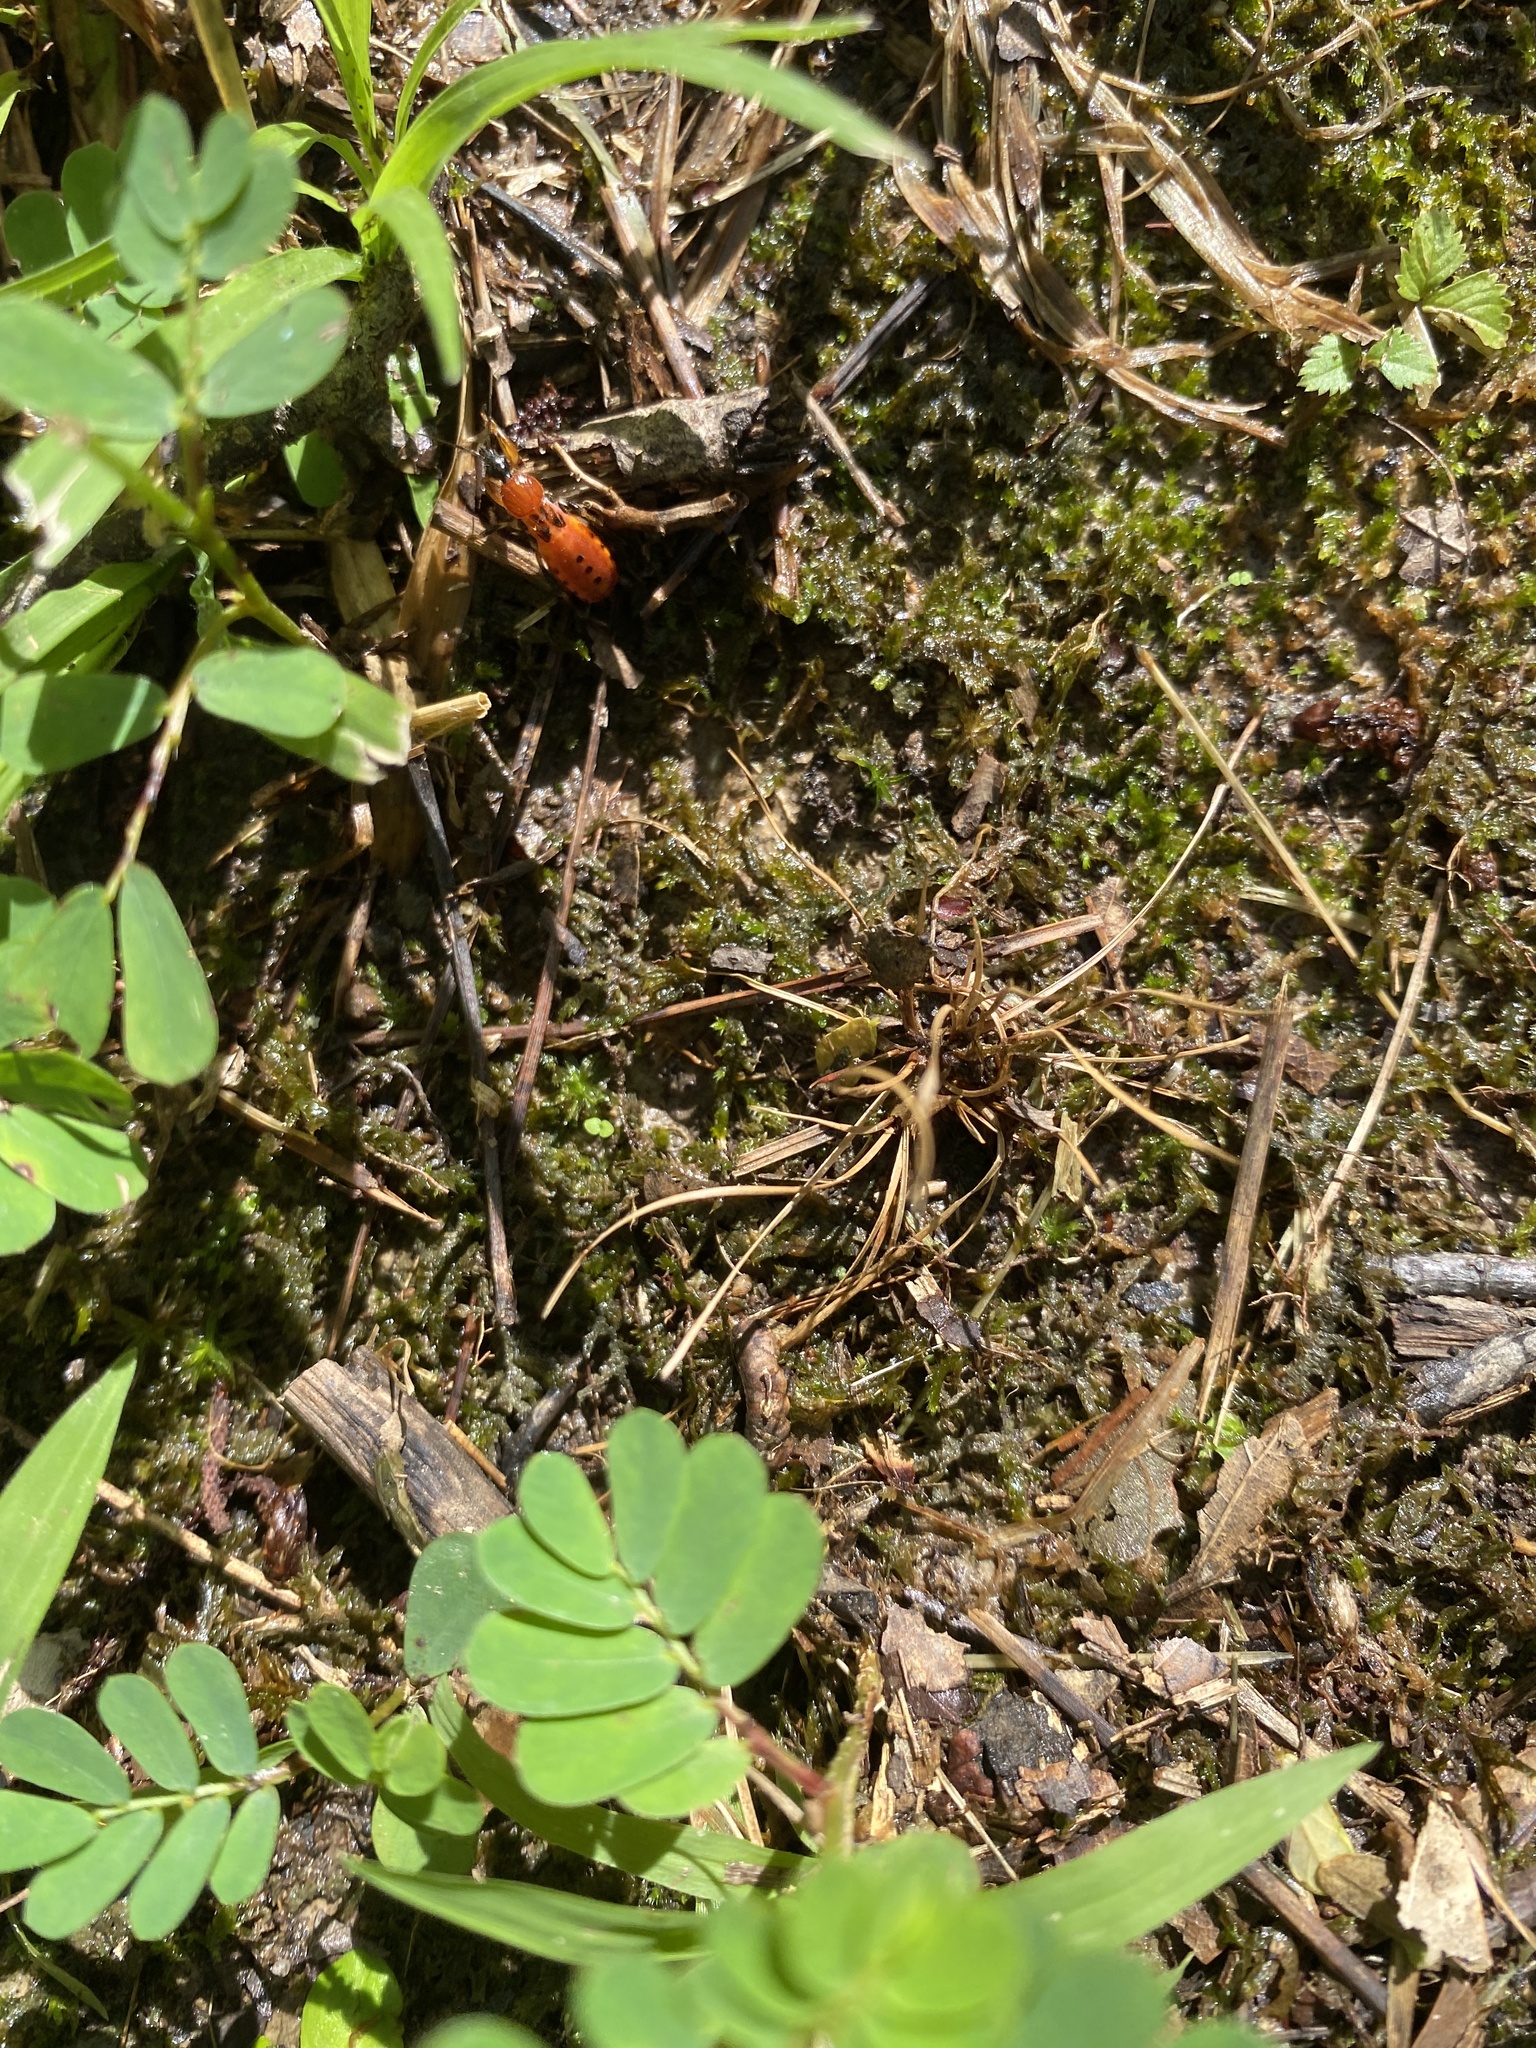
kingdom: Animalia
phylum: Arthropoda
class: Insecta
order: Hemiptera
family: Reduviidae
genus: Sirthenea
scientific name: Sirthenea stria
